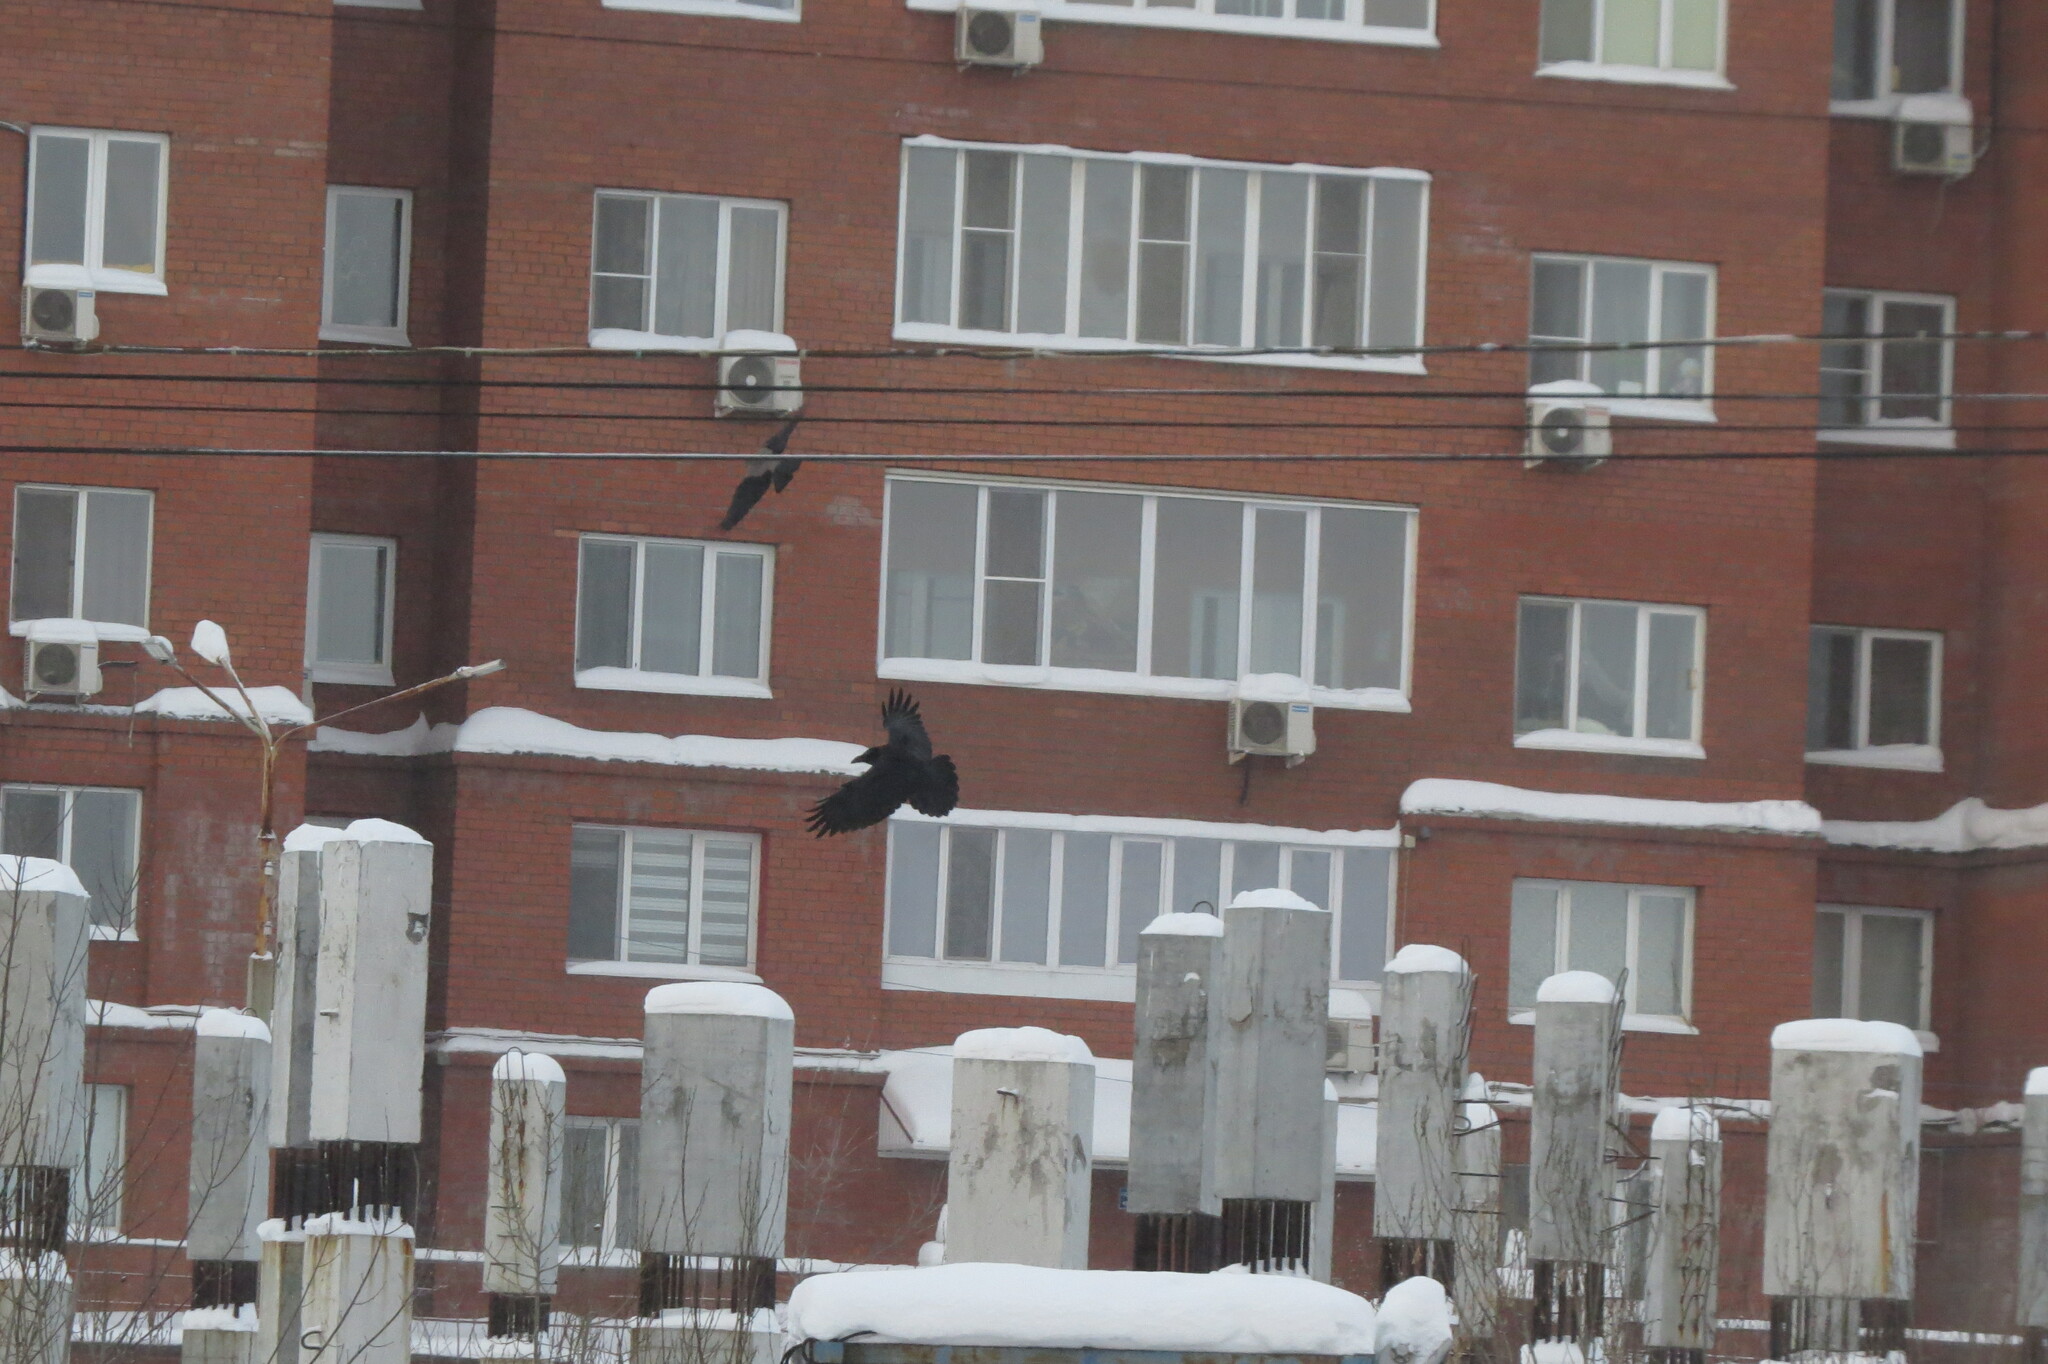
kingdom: Animalia
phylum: Chordata
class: Aves
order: Passeriformes
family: Corvidae
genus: Corvus
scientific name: Corvus corax
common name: Common raven
